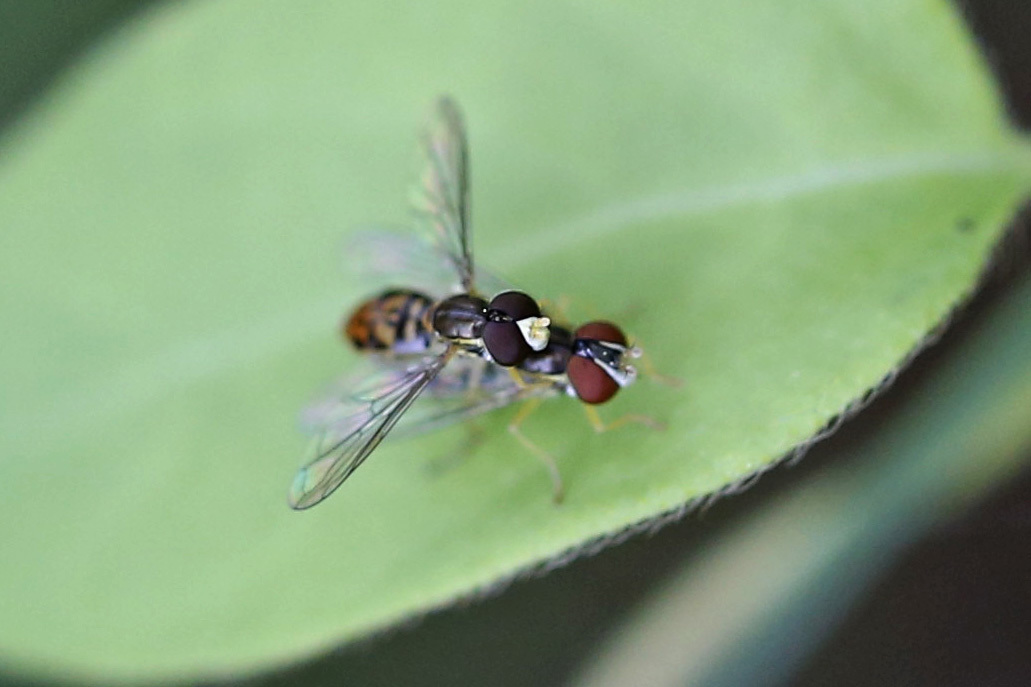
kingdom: Animalia
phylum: Arthropoda
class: Insecta
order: Diptera
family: Syrphidae
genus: Toxomerus
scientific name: Toxomerus marginatus
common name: Syrphid fly
